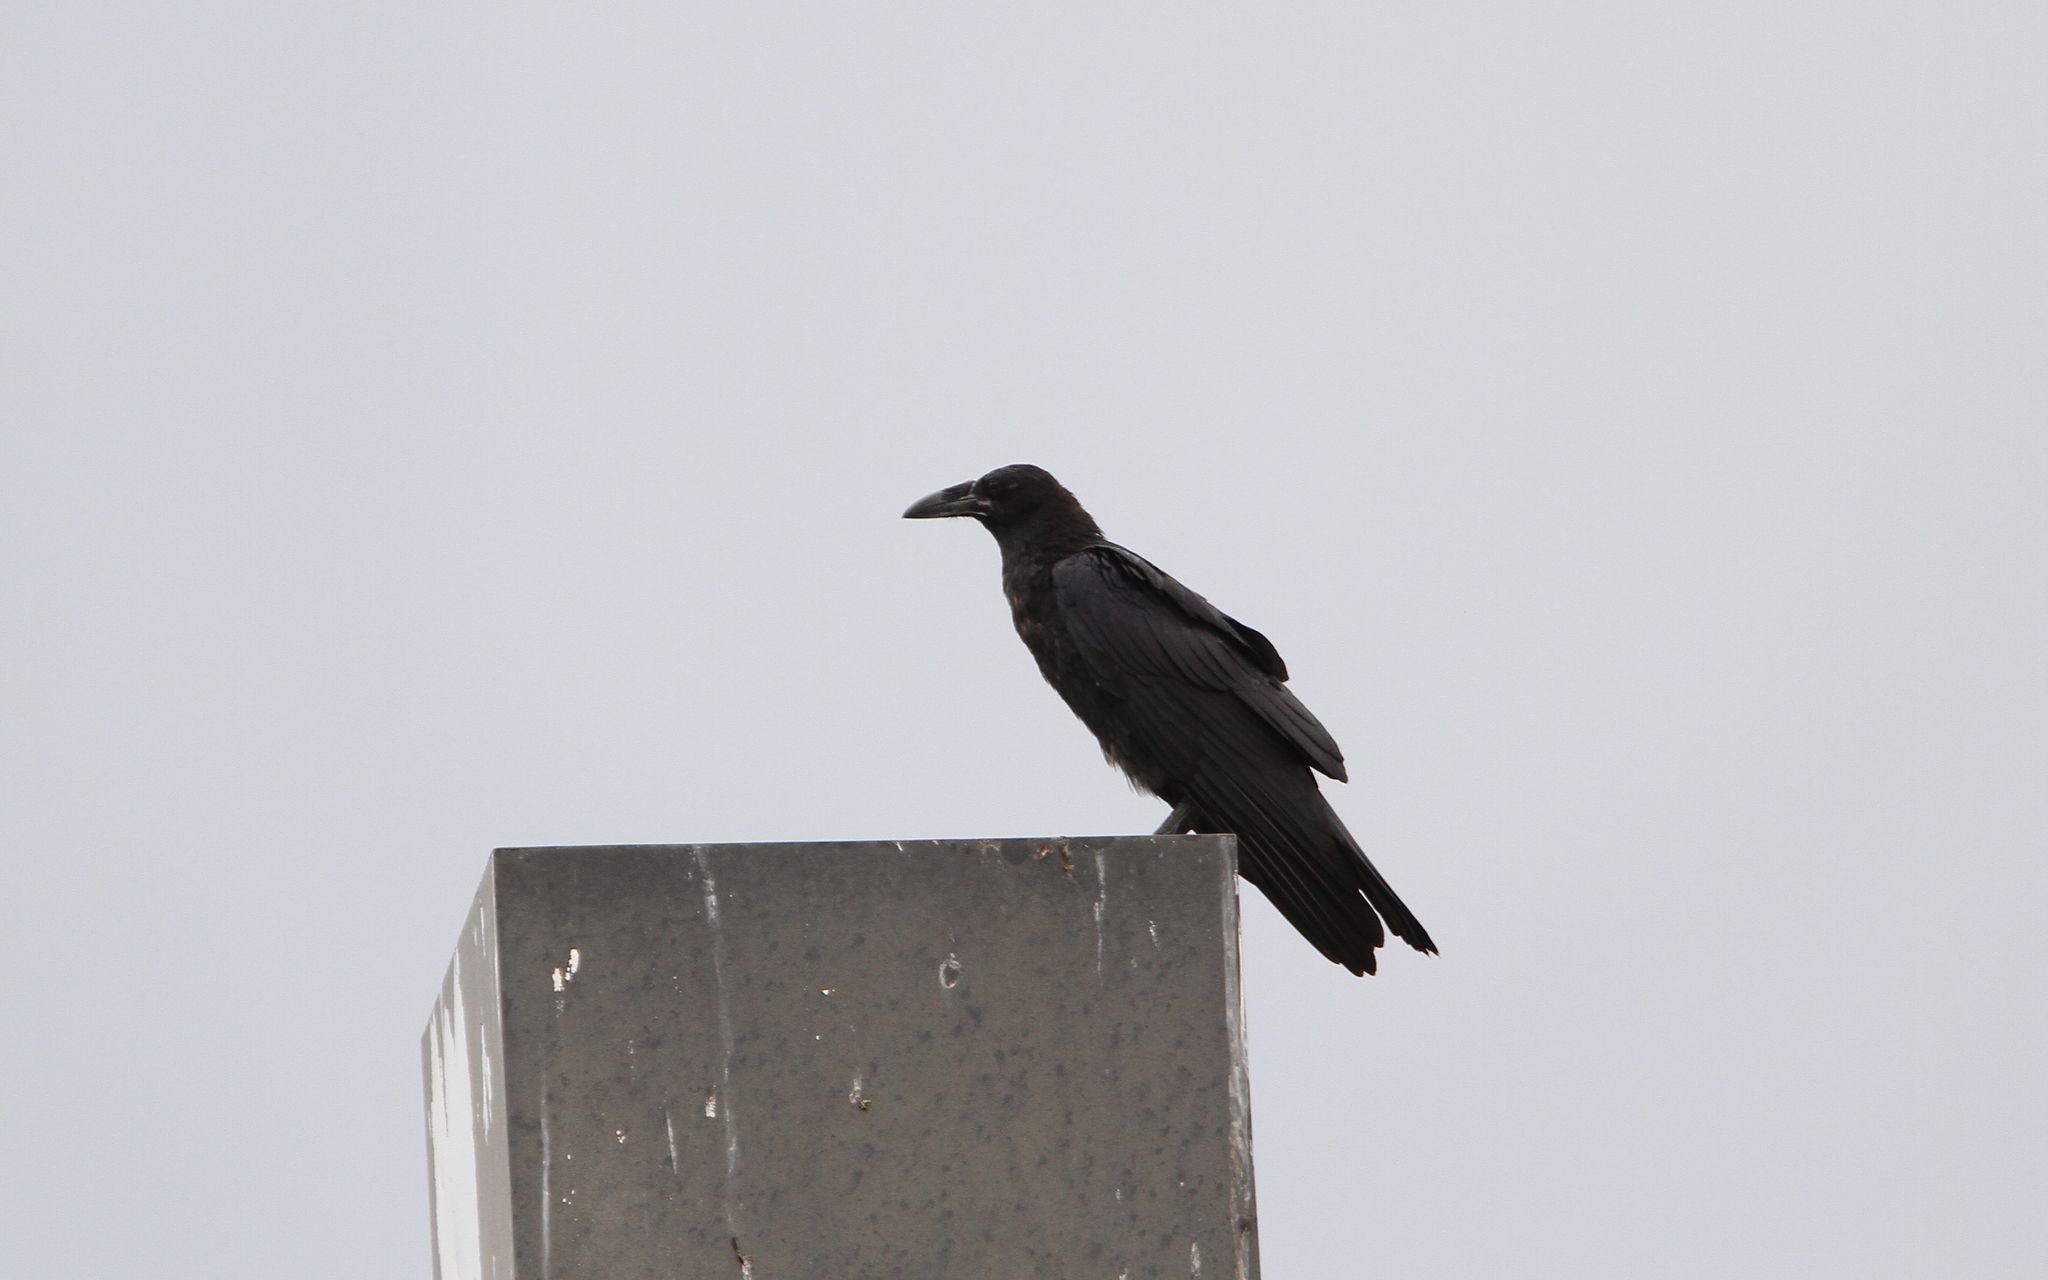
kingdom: Animalia
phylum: Chordata
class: Aves
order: Passeriformes
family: Corvidae
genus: Corvus
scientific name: Corvus cryptoleucus
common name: Chihuahuan raven
